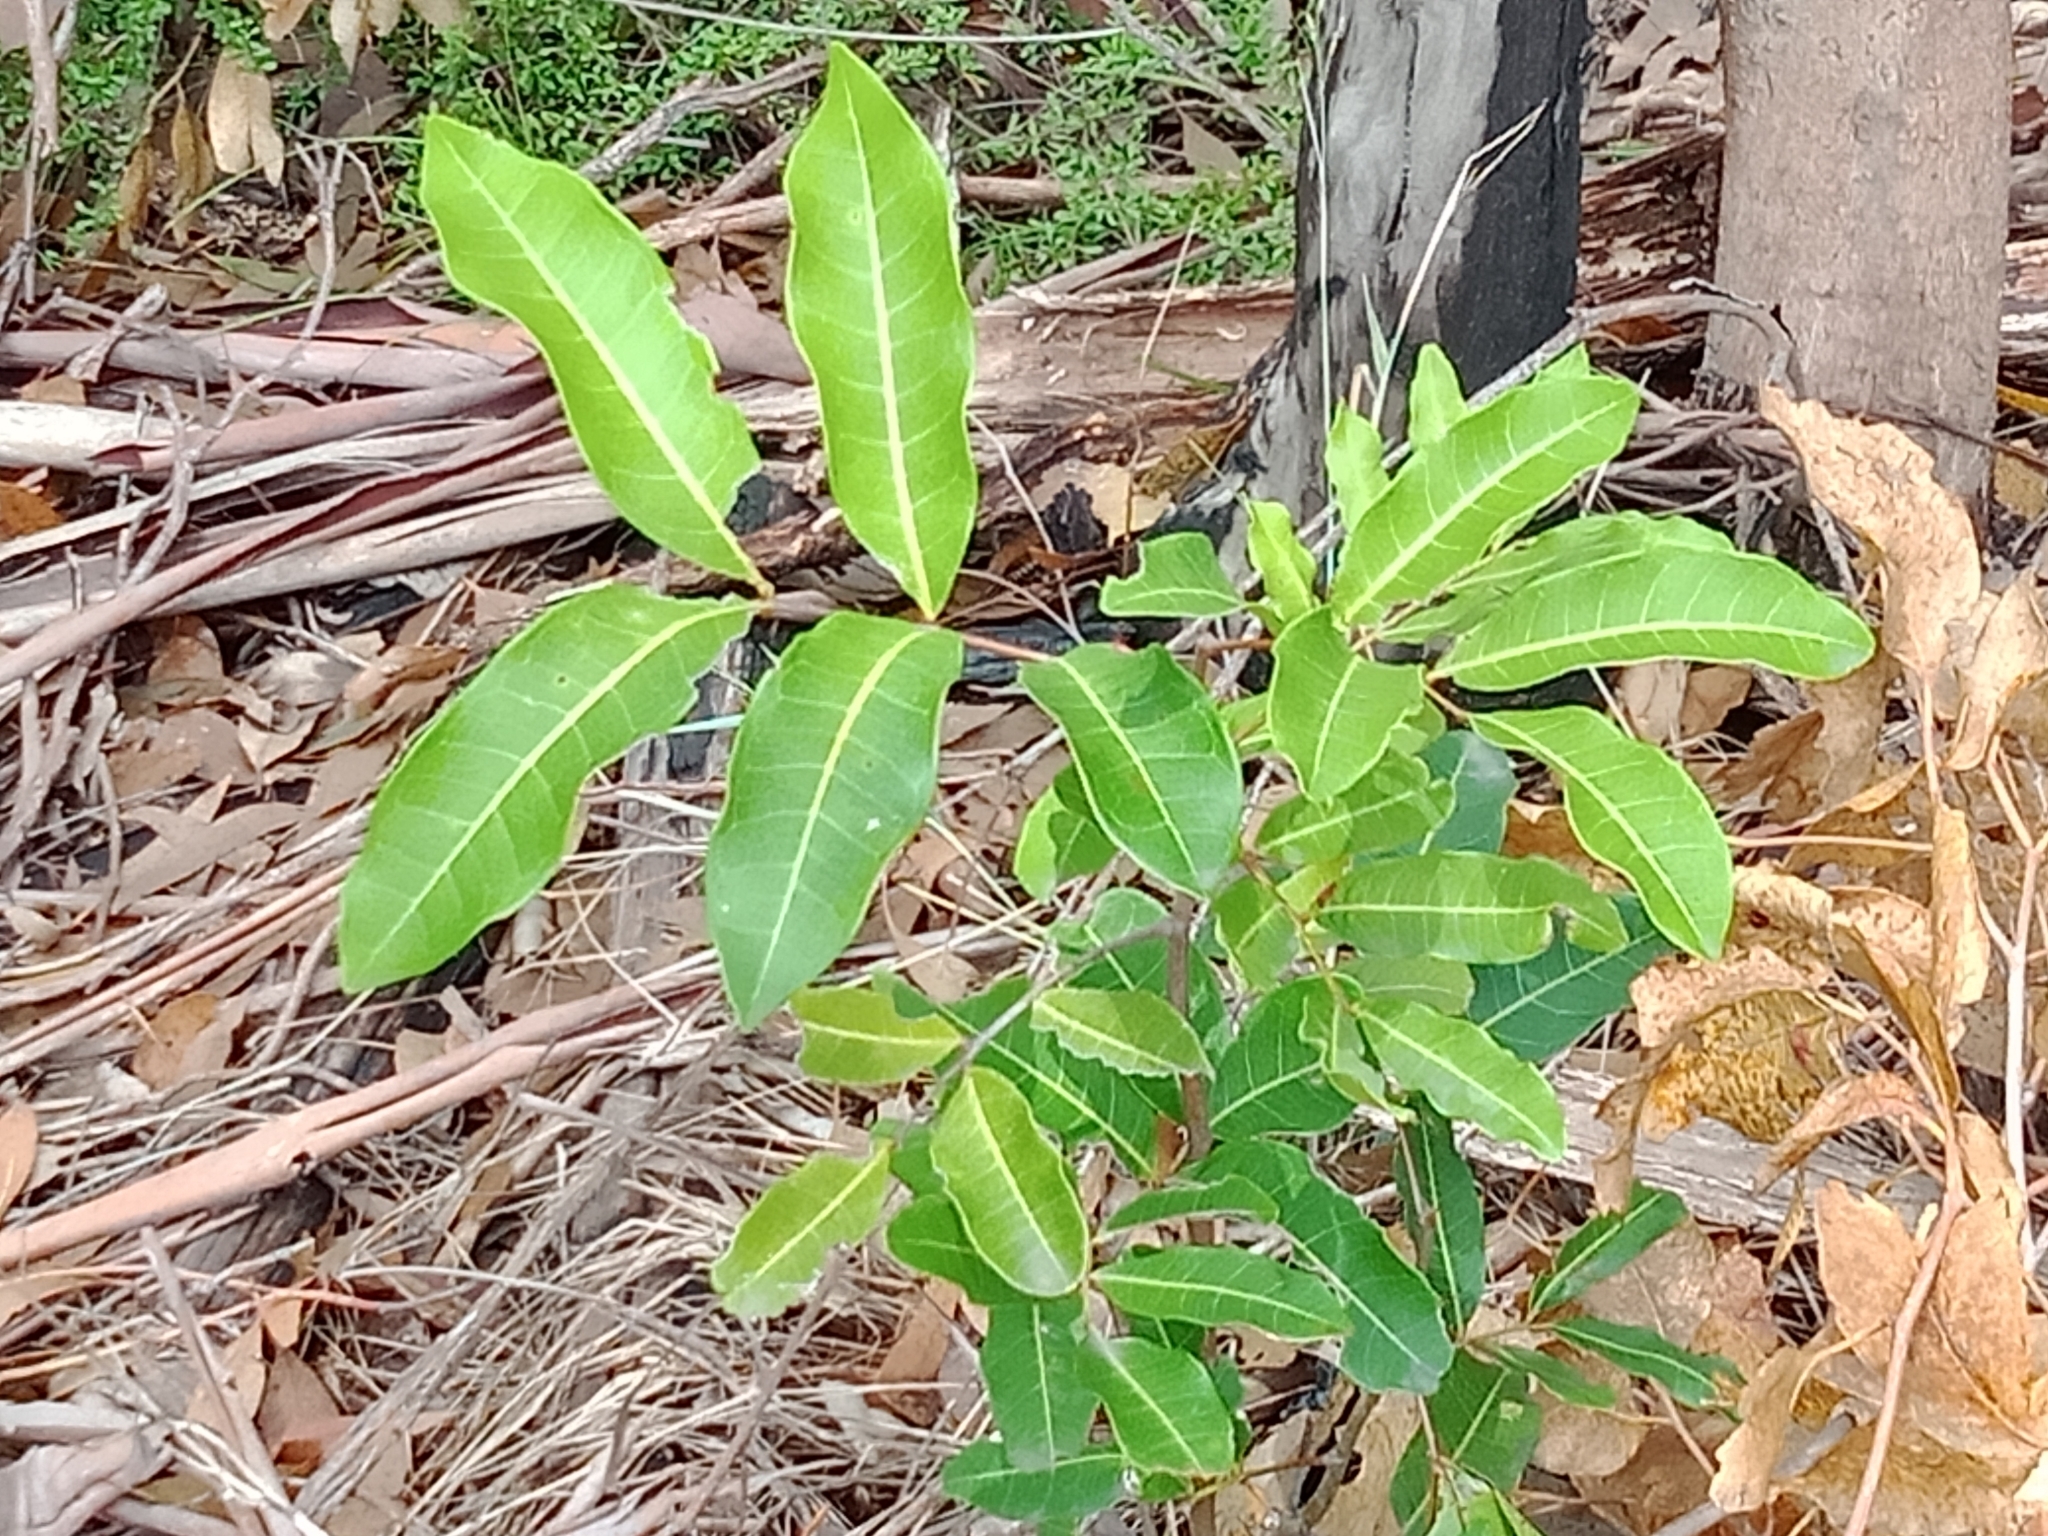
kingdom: Plantae
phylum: Tracheophyta
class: Magnoliopsida
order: Sapindales
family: Sapindaceae
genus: Cupaniopsis
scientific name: Cupaniopsis anacardioides
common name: Carrotwood
